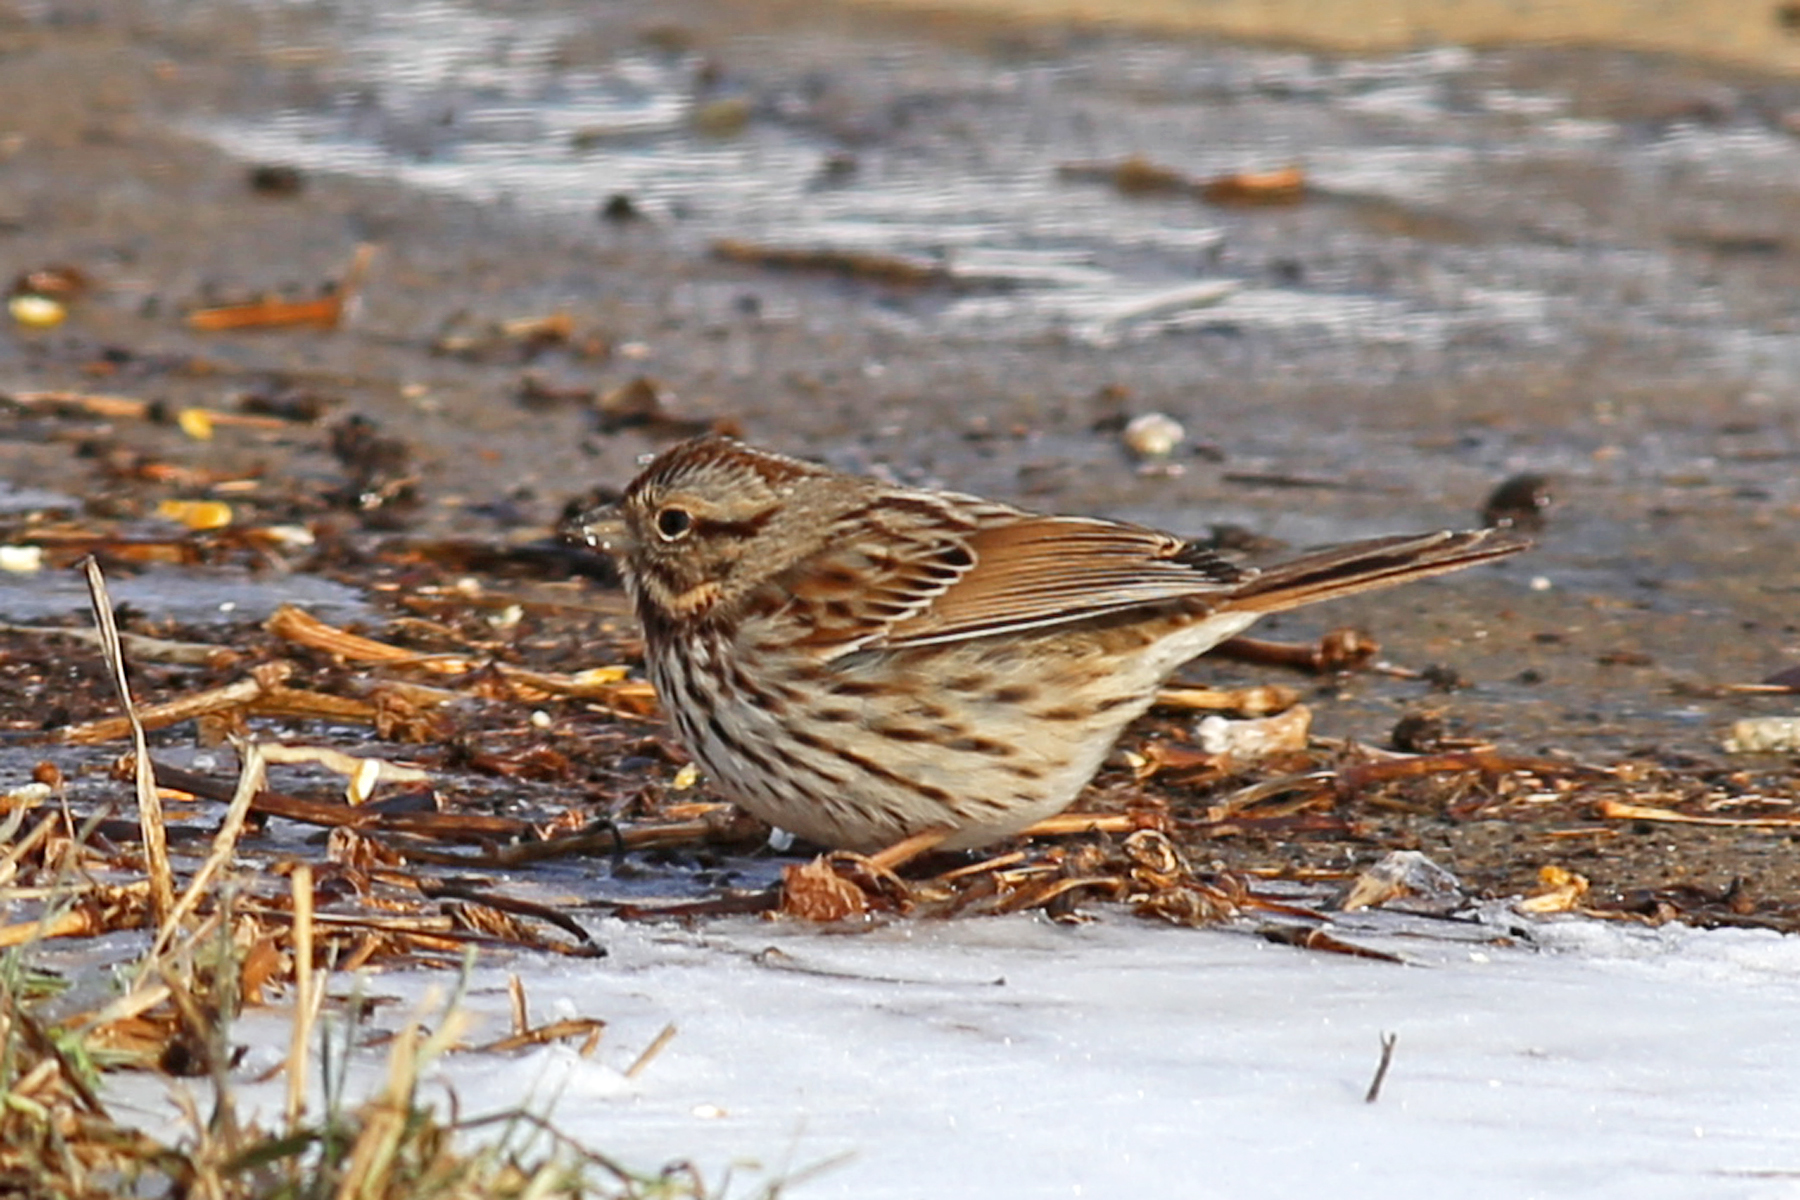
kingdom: Animalia
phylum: Chordata
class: Aves
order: Passeriformes
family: Passerellidae
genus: Melospiza
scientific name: Melospiza melodia
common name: Song sparrow
